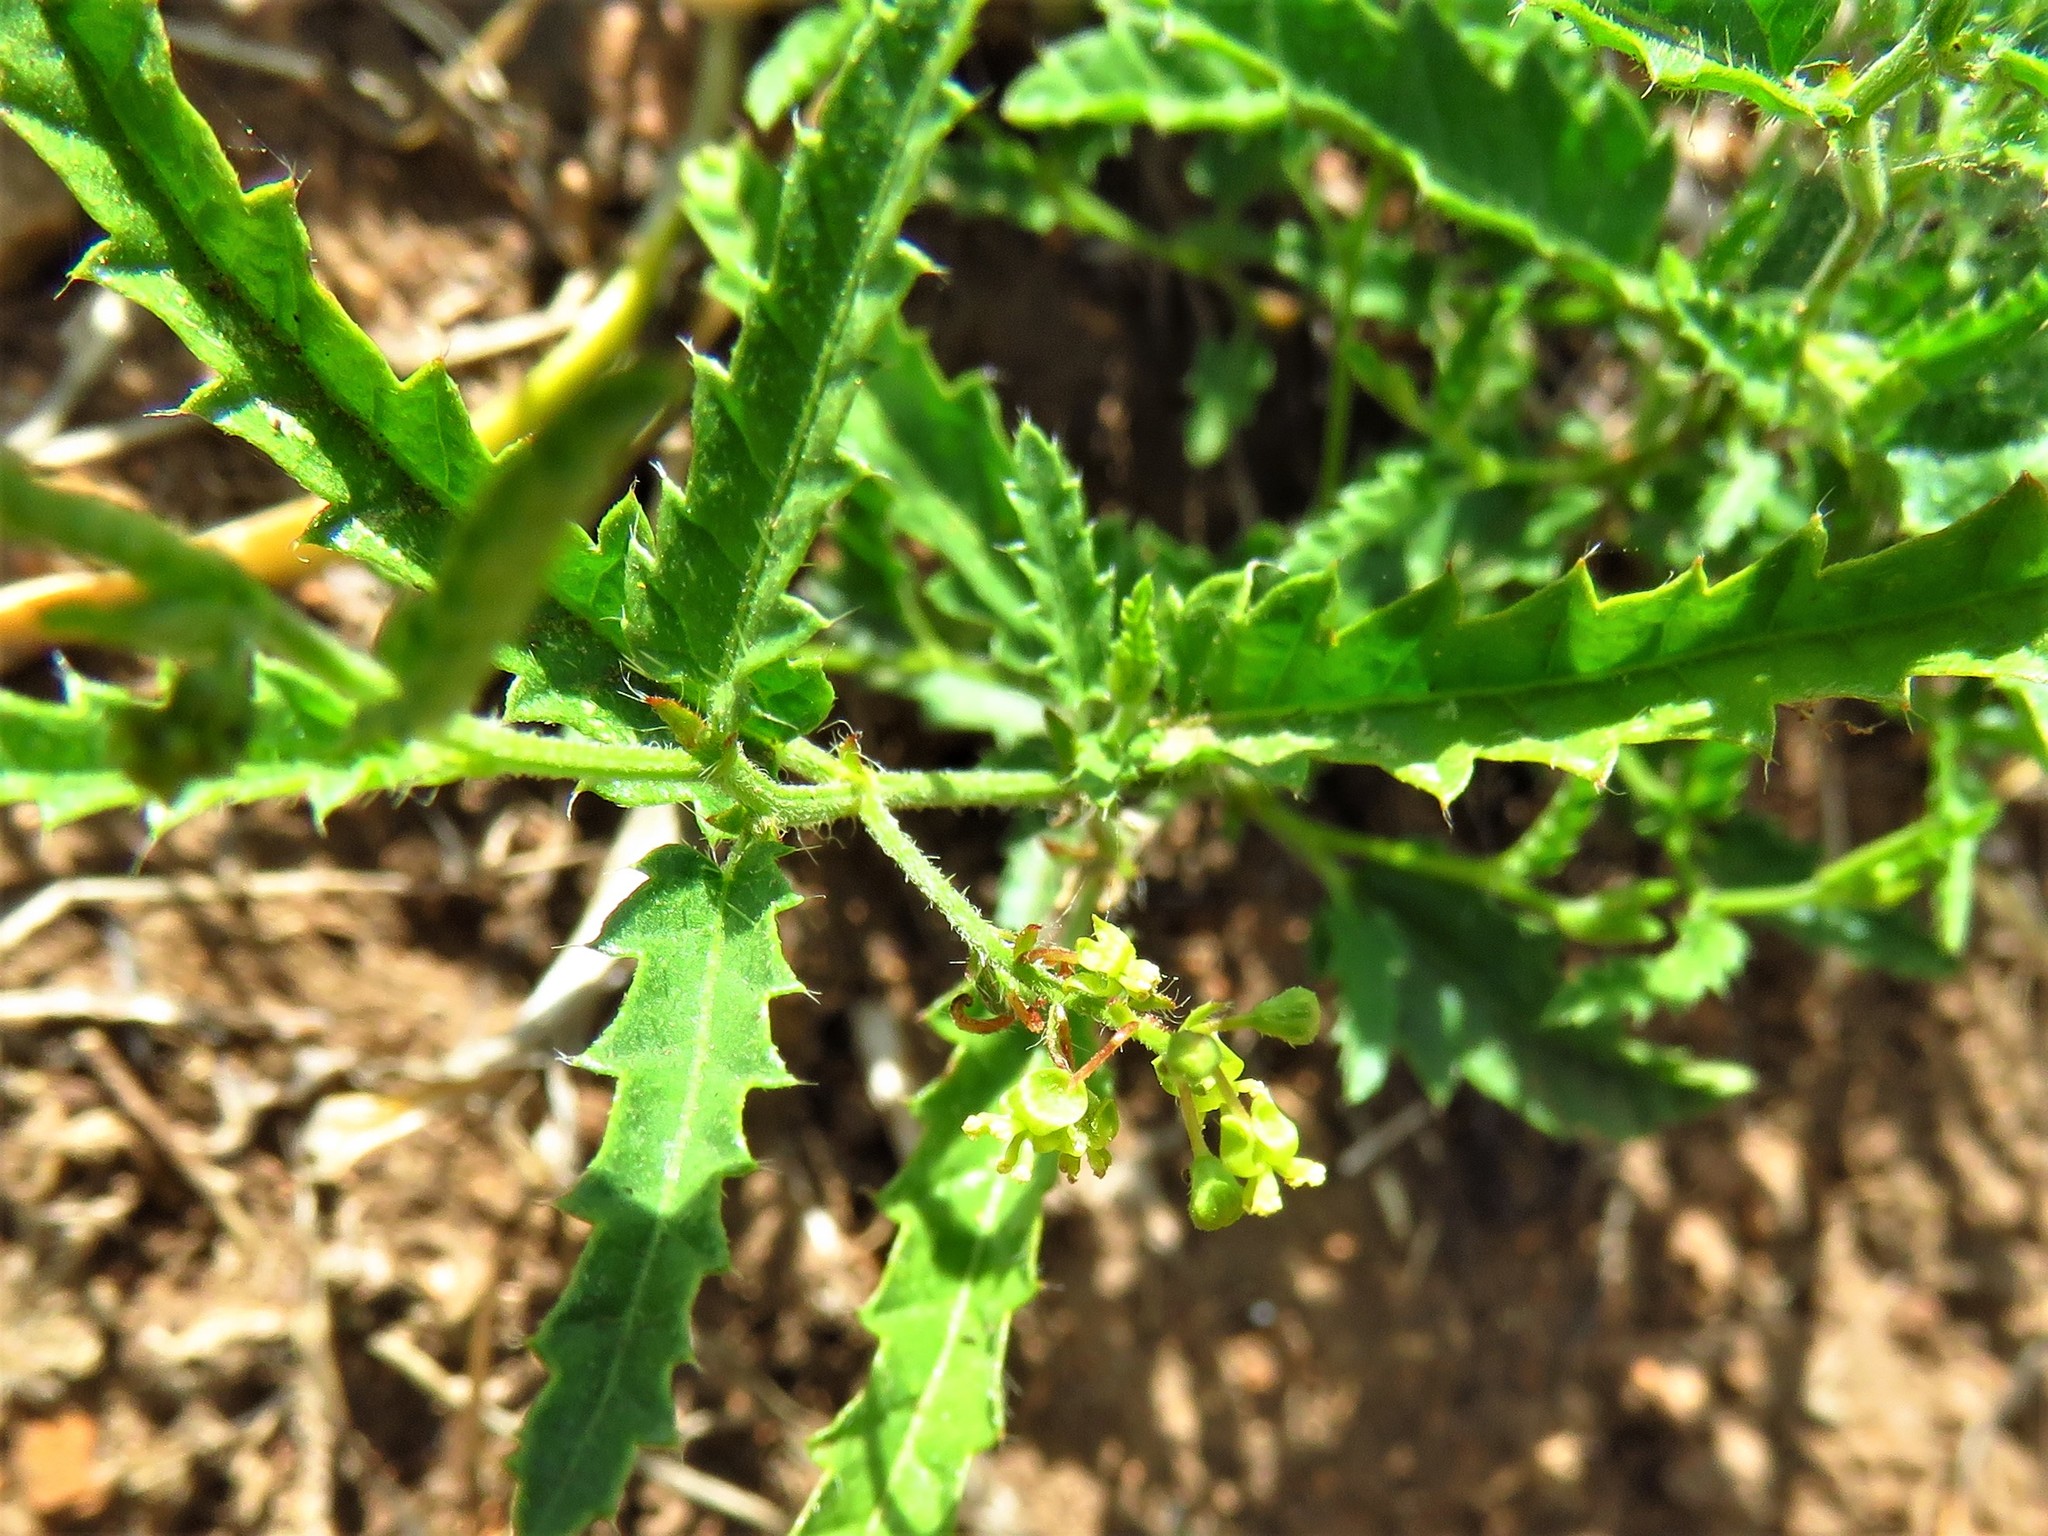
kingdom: Plantae
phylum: Tracheophyta
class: Magnoliopsida
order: Malpighiales
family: Euphorbiaceae
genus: Tragia
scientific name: Tragia ramosa
